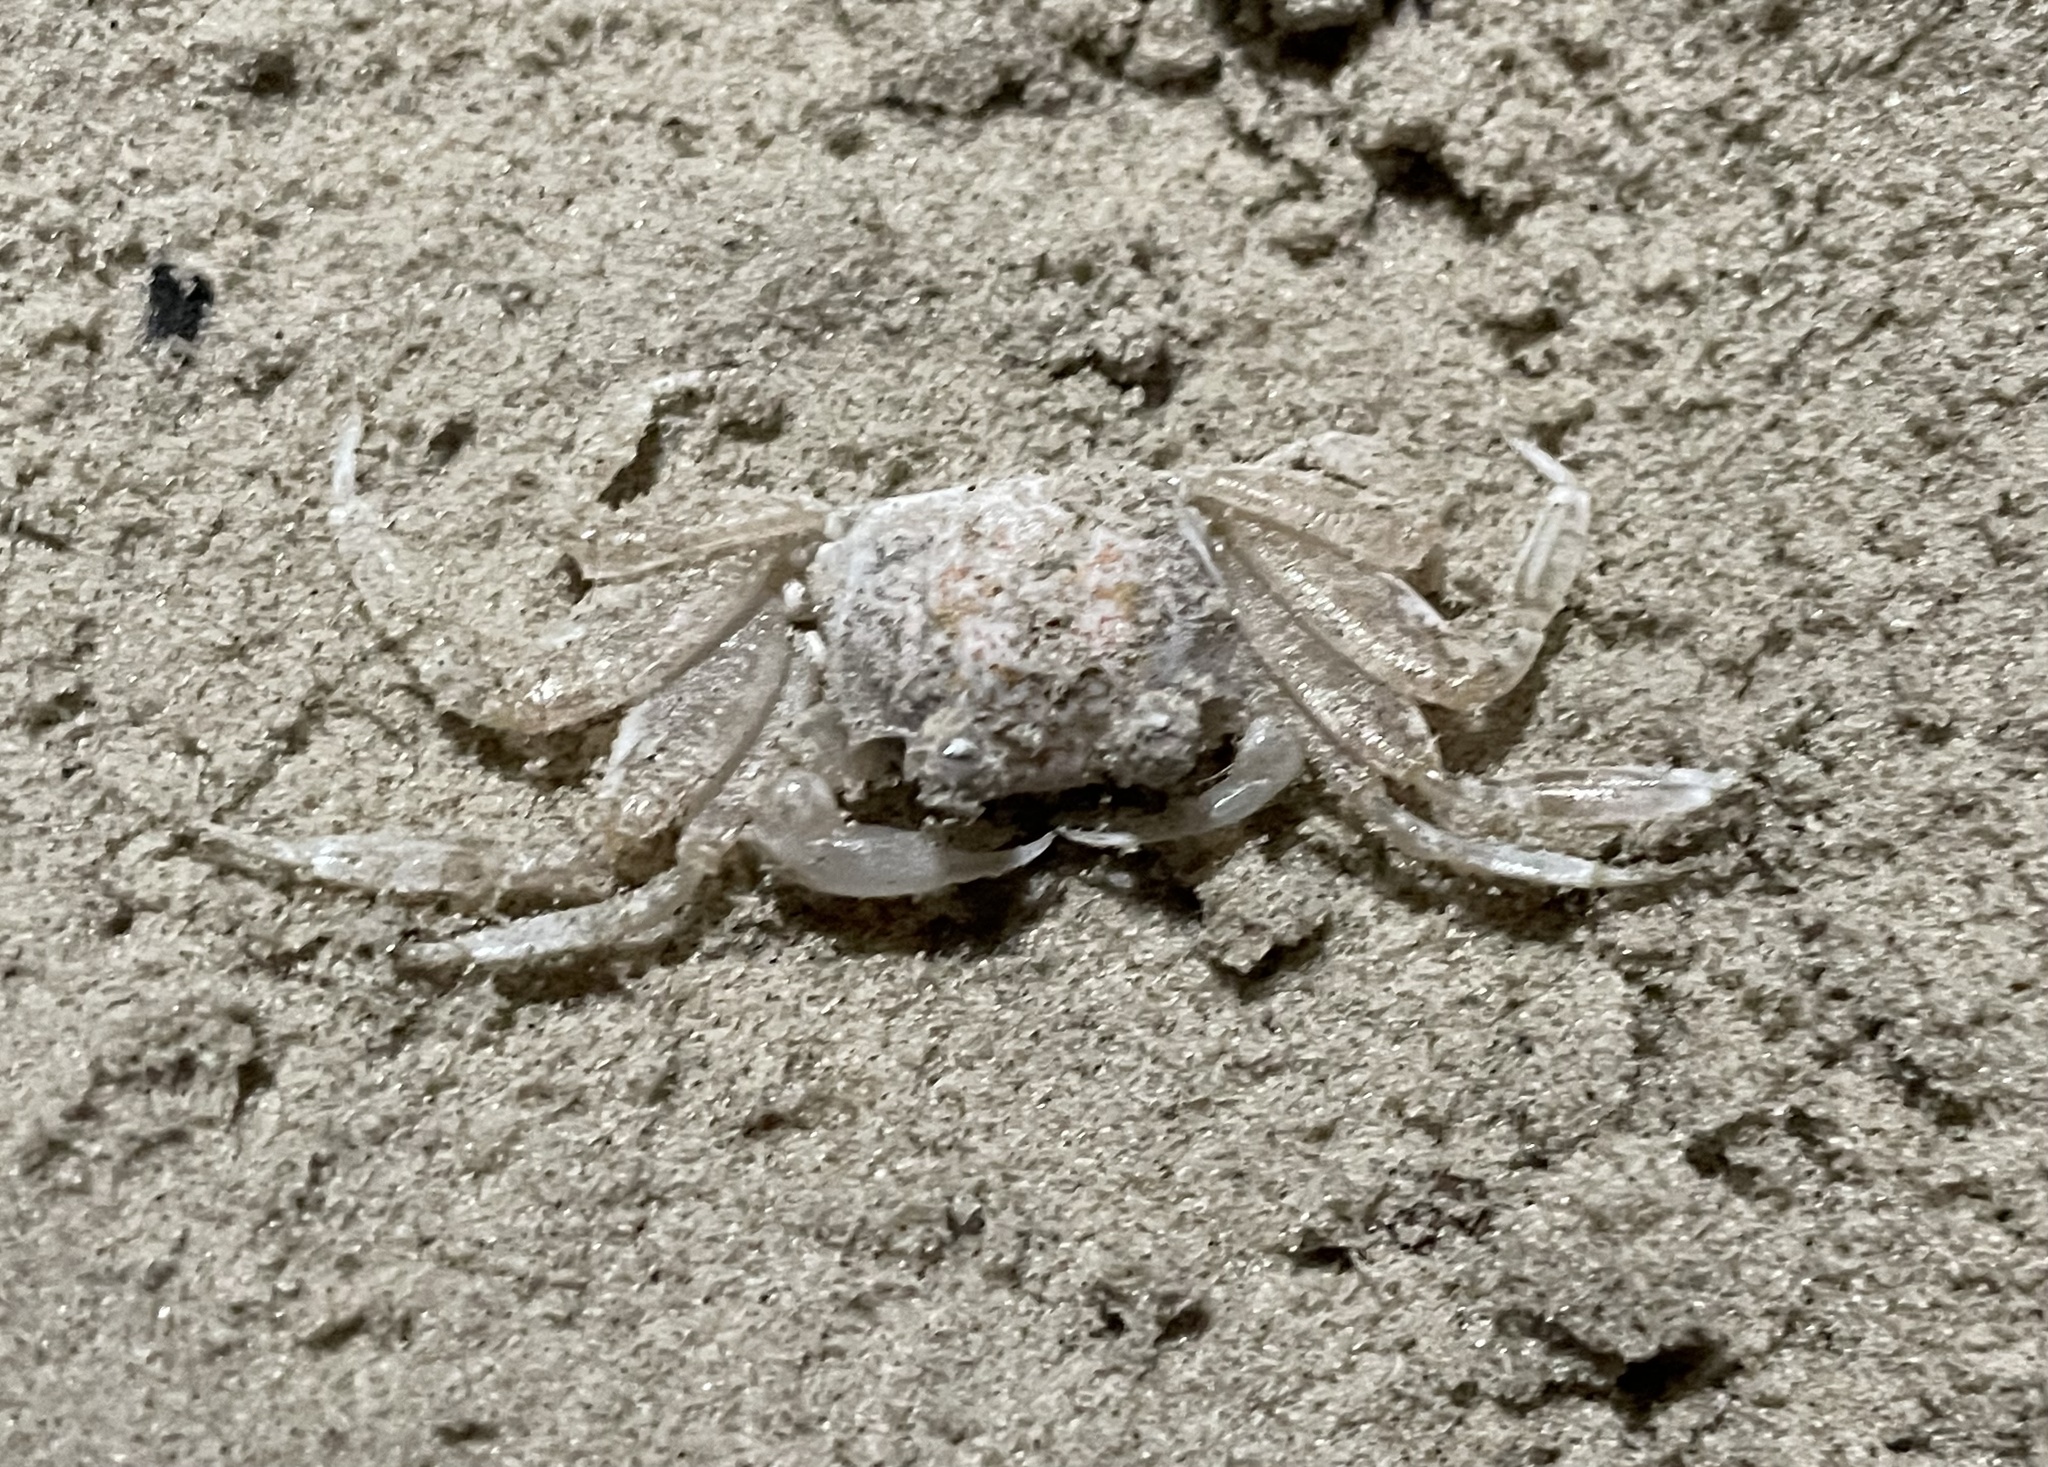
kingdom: Animalia
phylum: Arthropoda
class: Malacostraca
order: Decapoda
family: Ocypodidae
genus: Ocypode
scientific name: Ocypode quadrata
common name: Ghost crab
